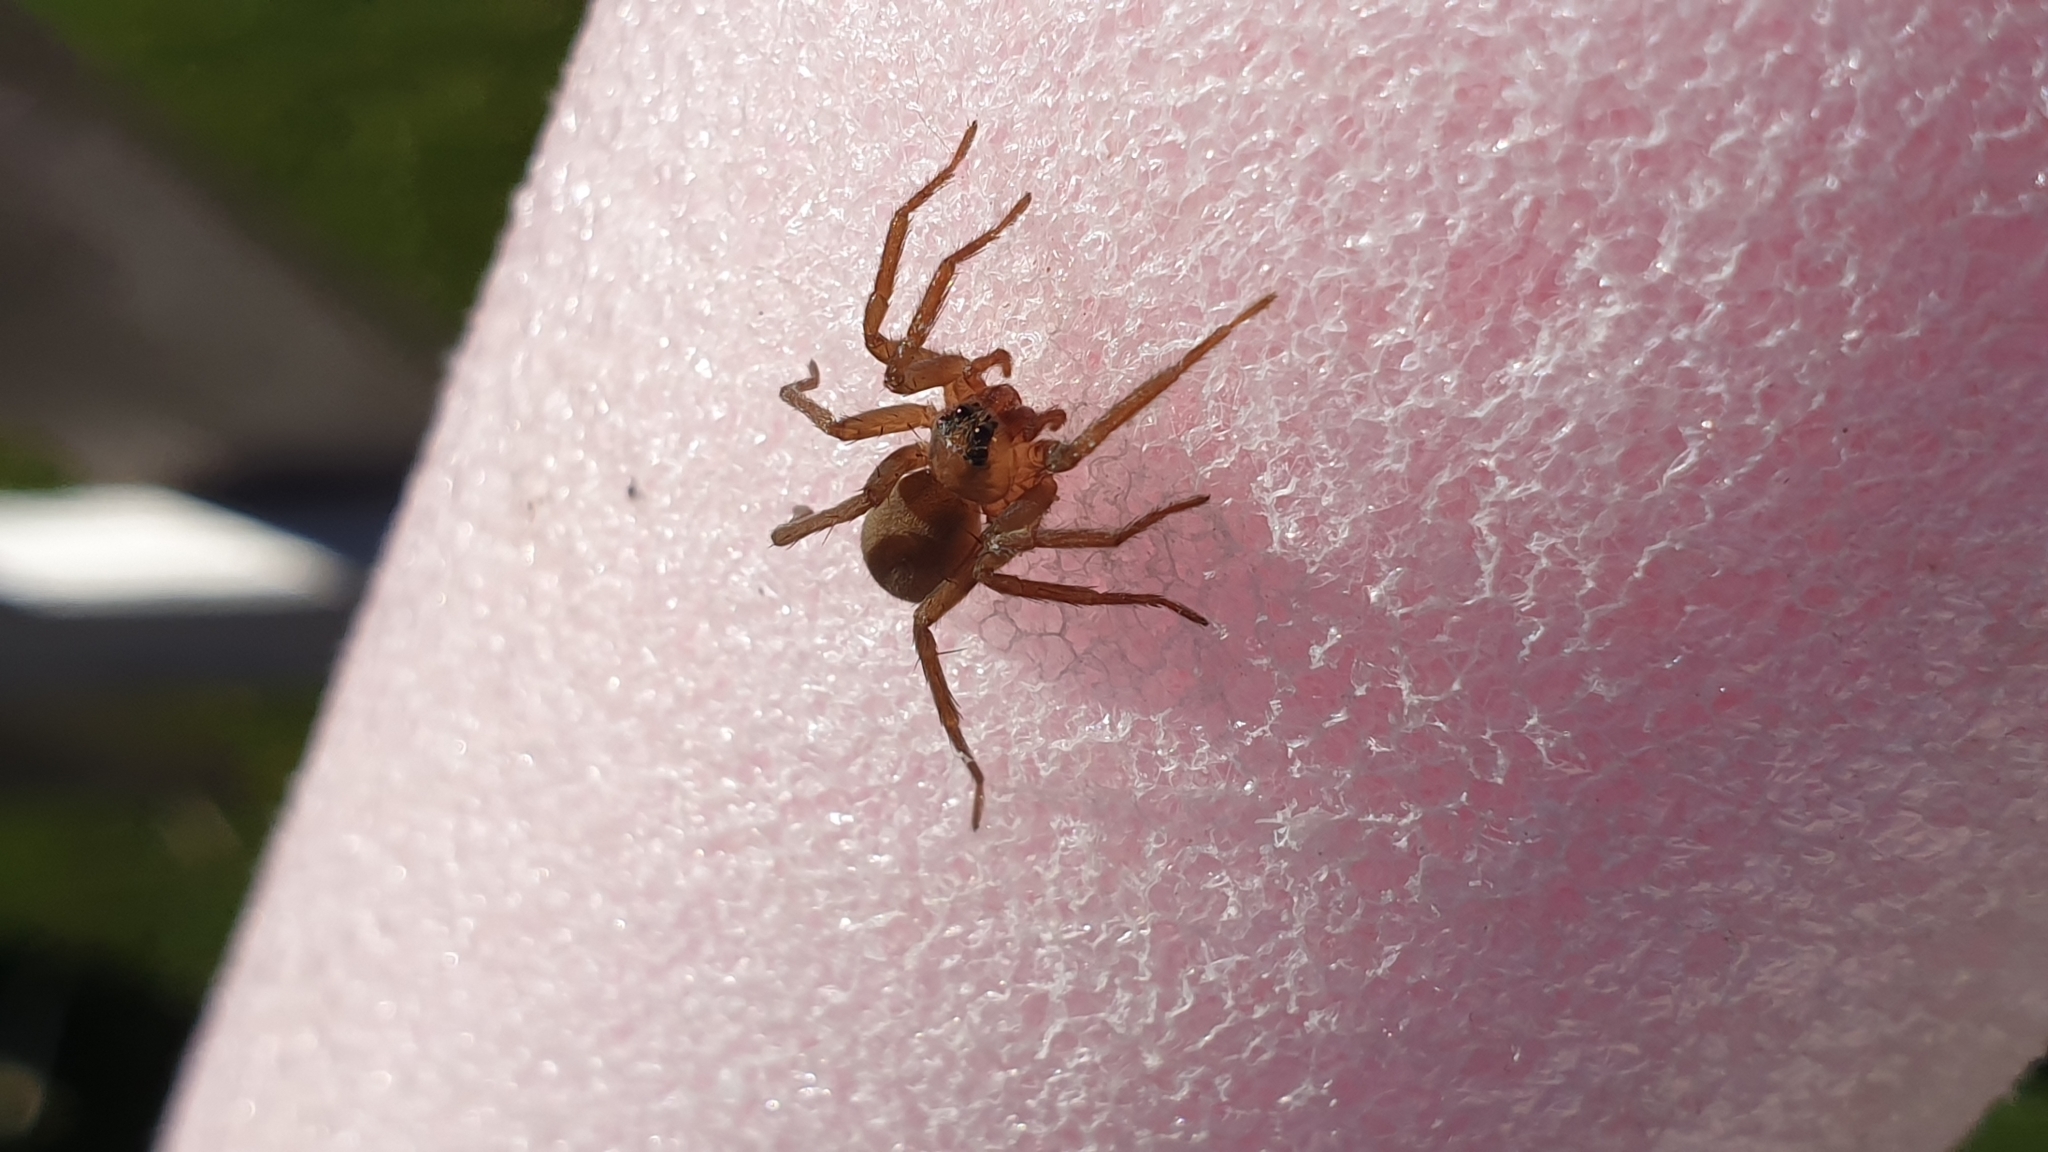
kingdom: Animalia
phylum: Arthropoda
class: Arachnida
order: Araneae
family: Lycosidae
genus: Trabea
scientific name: Trabea paradoxa
